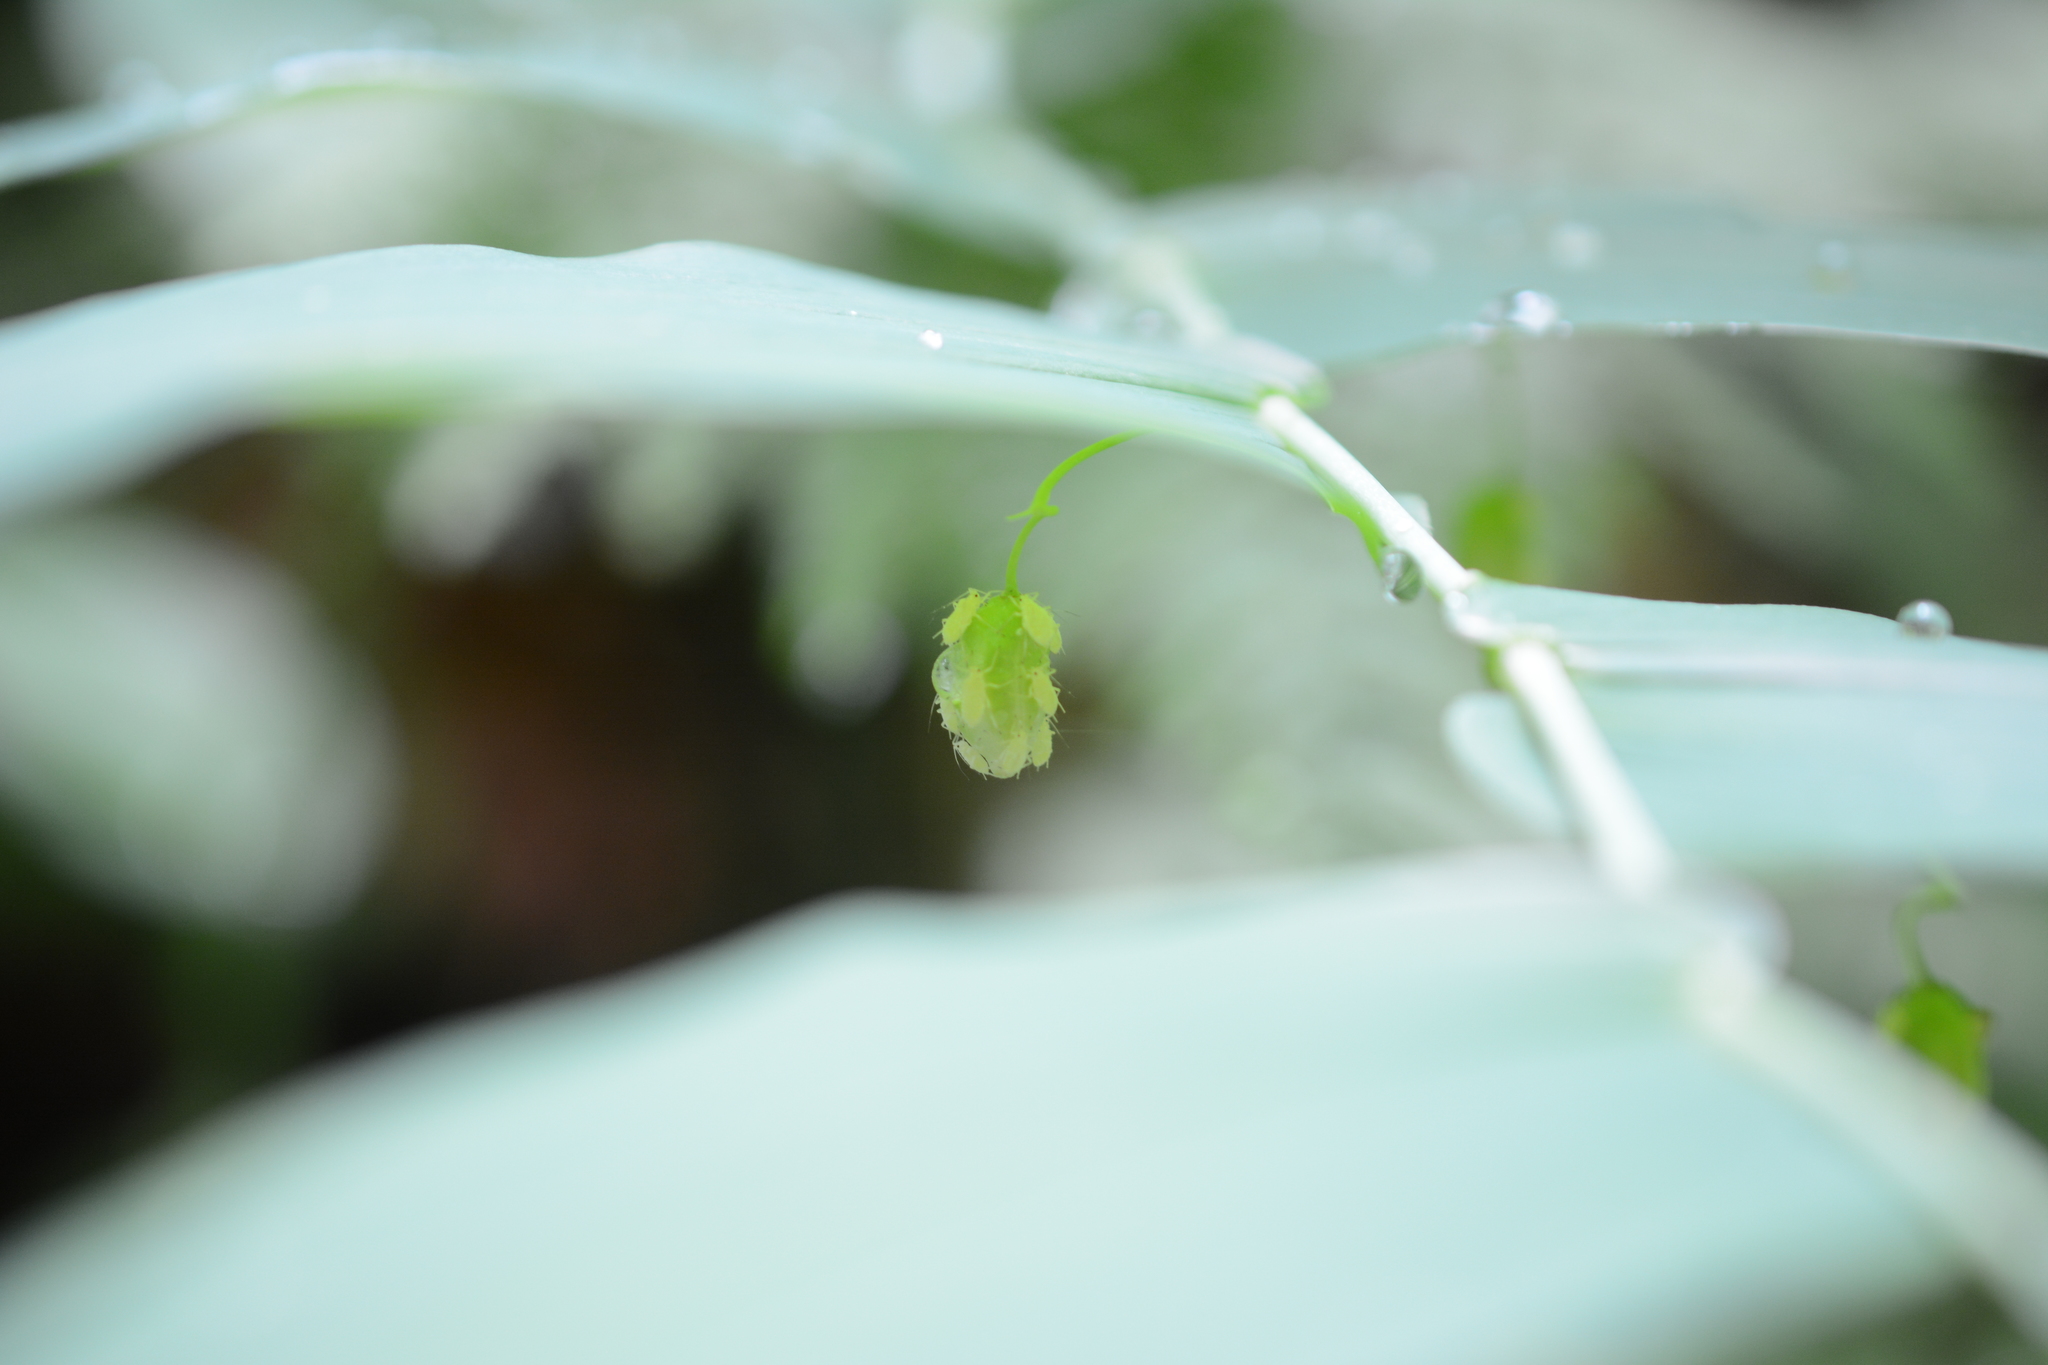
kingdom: Plantae
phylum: Tracheophyta
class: Liliopsida
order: Liliales
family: Liliaceae
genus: Streptopus
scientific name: Streptopus amplexifolius
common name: Clasp twisted stalk
